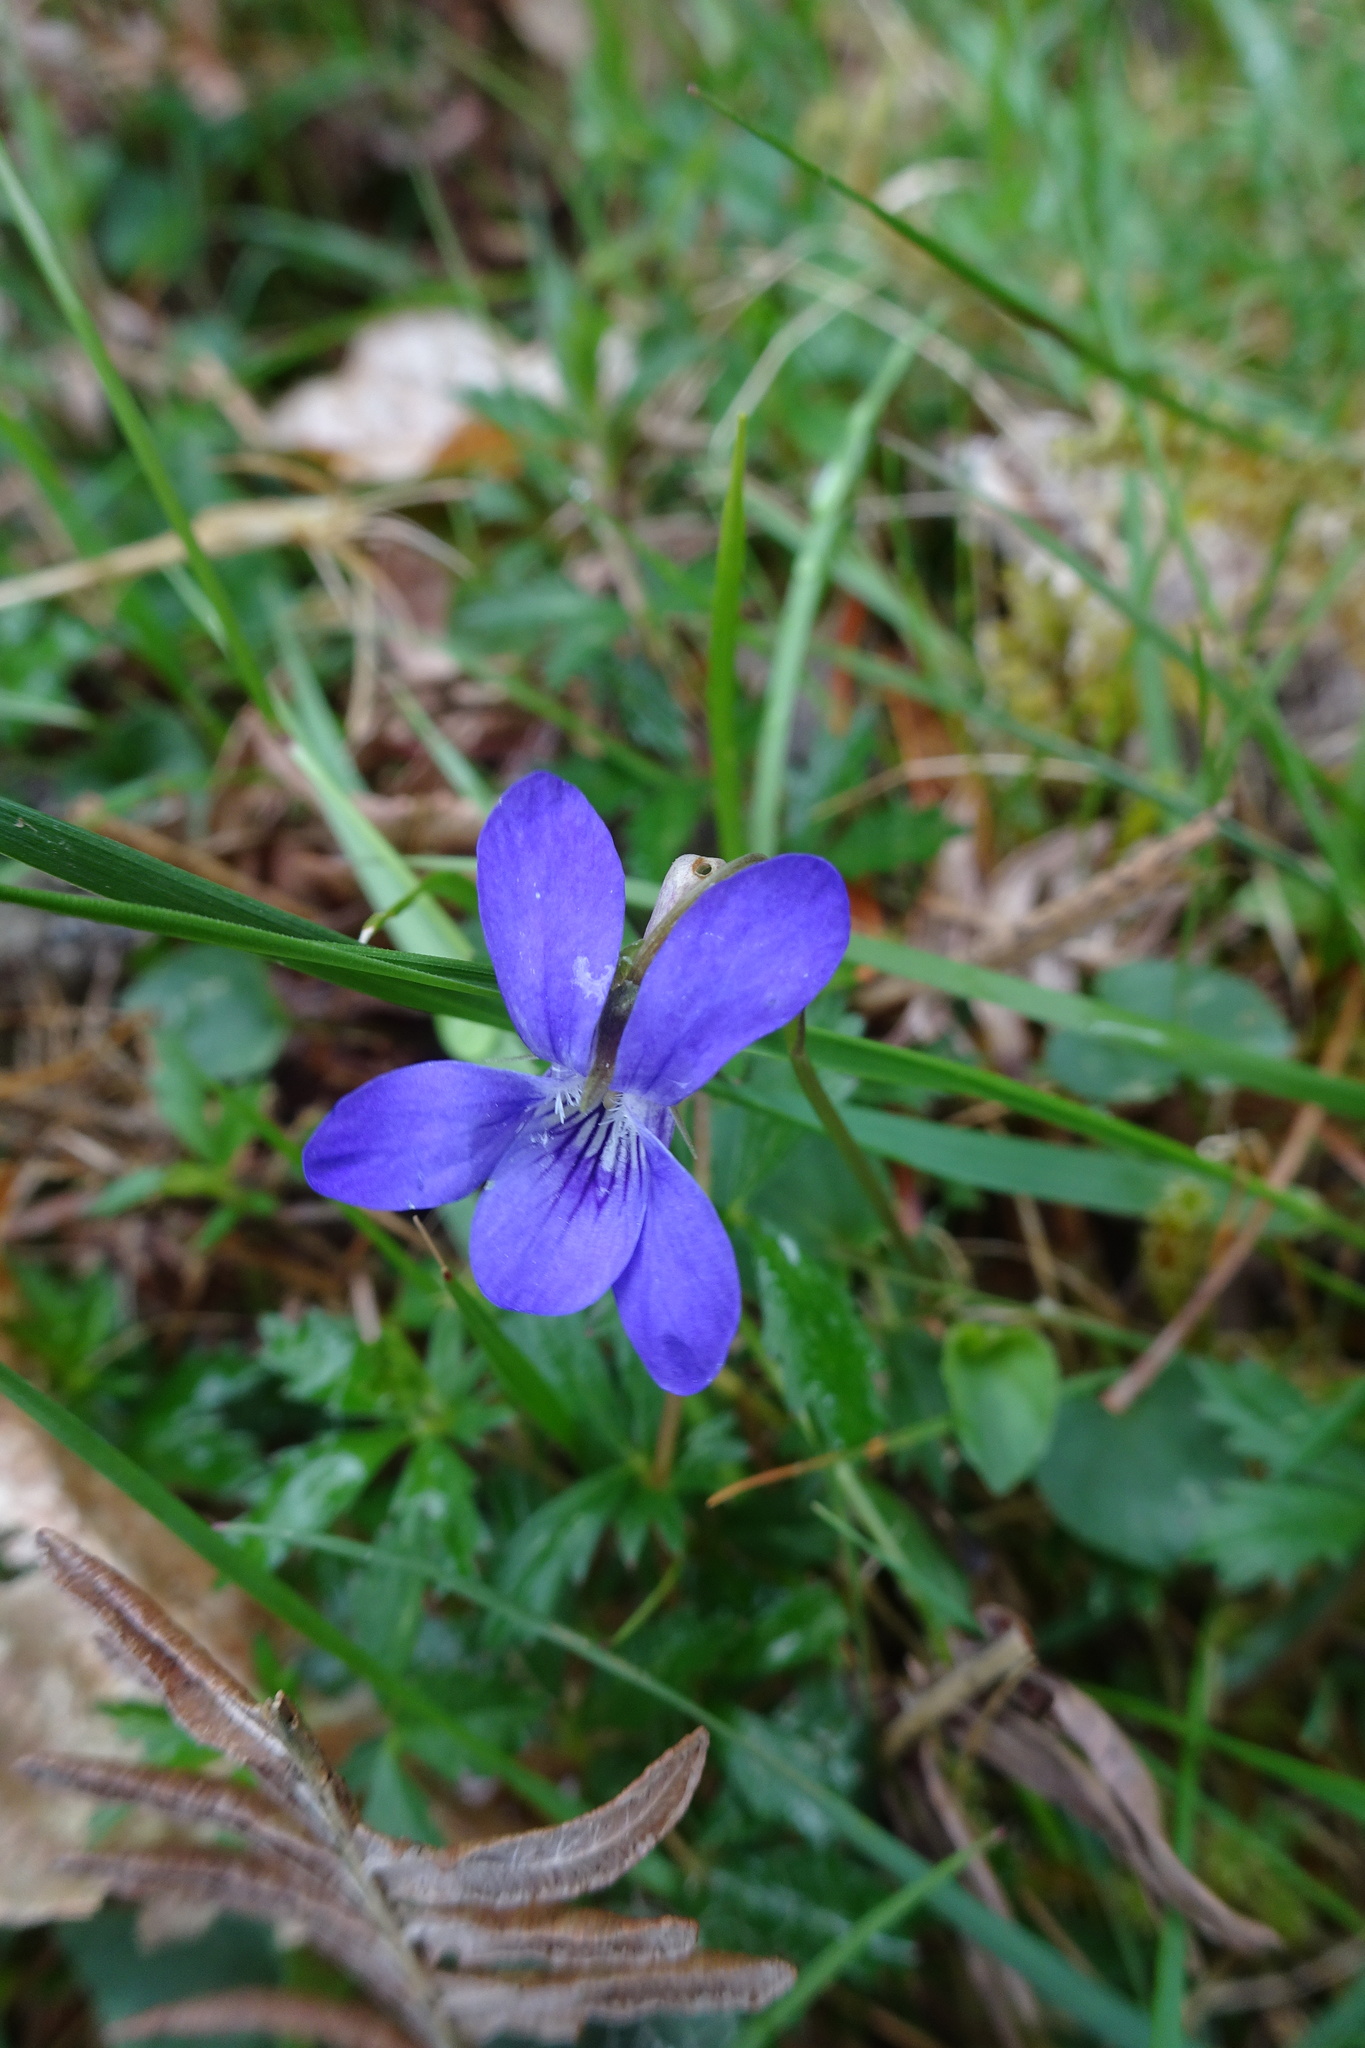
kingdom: Plantae
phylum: Tracheophyta
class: Magnoliopsida
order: Malpighiales
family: Violaceae
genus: Viola
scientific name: Viola riviniana
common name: Common dog-violet
